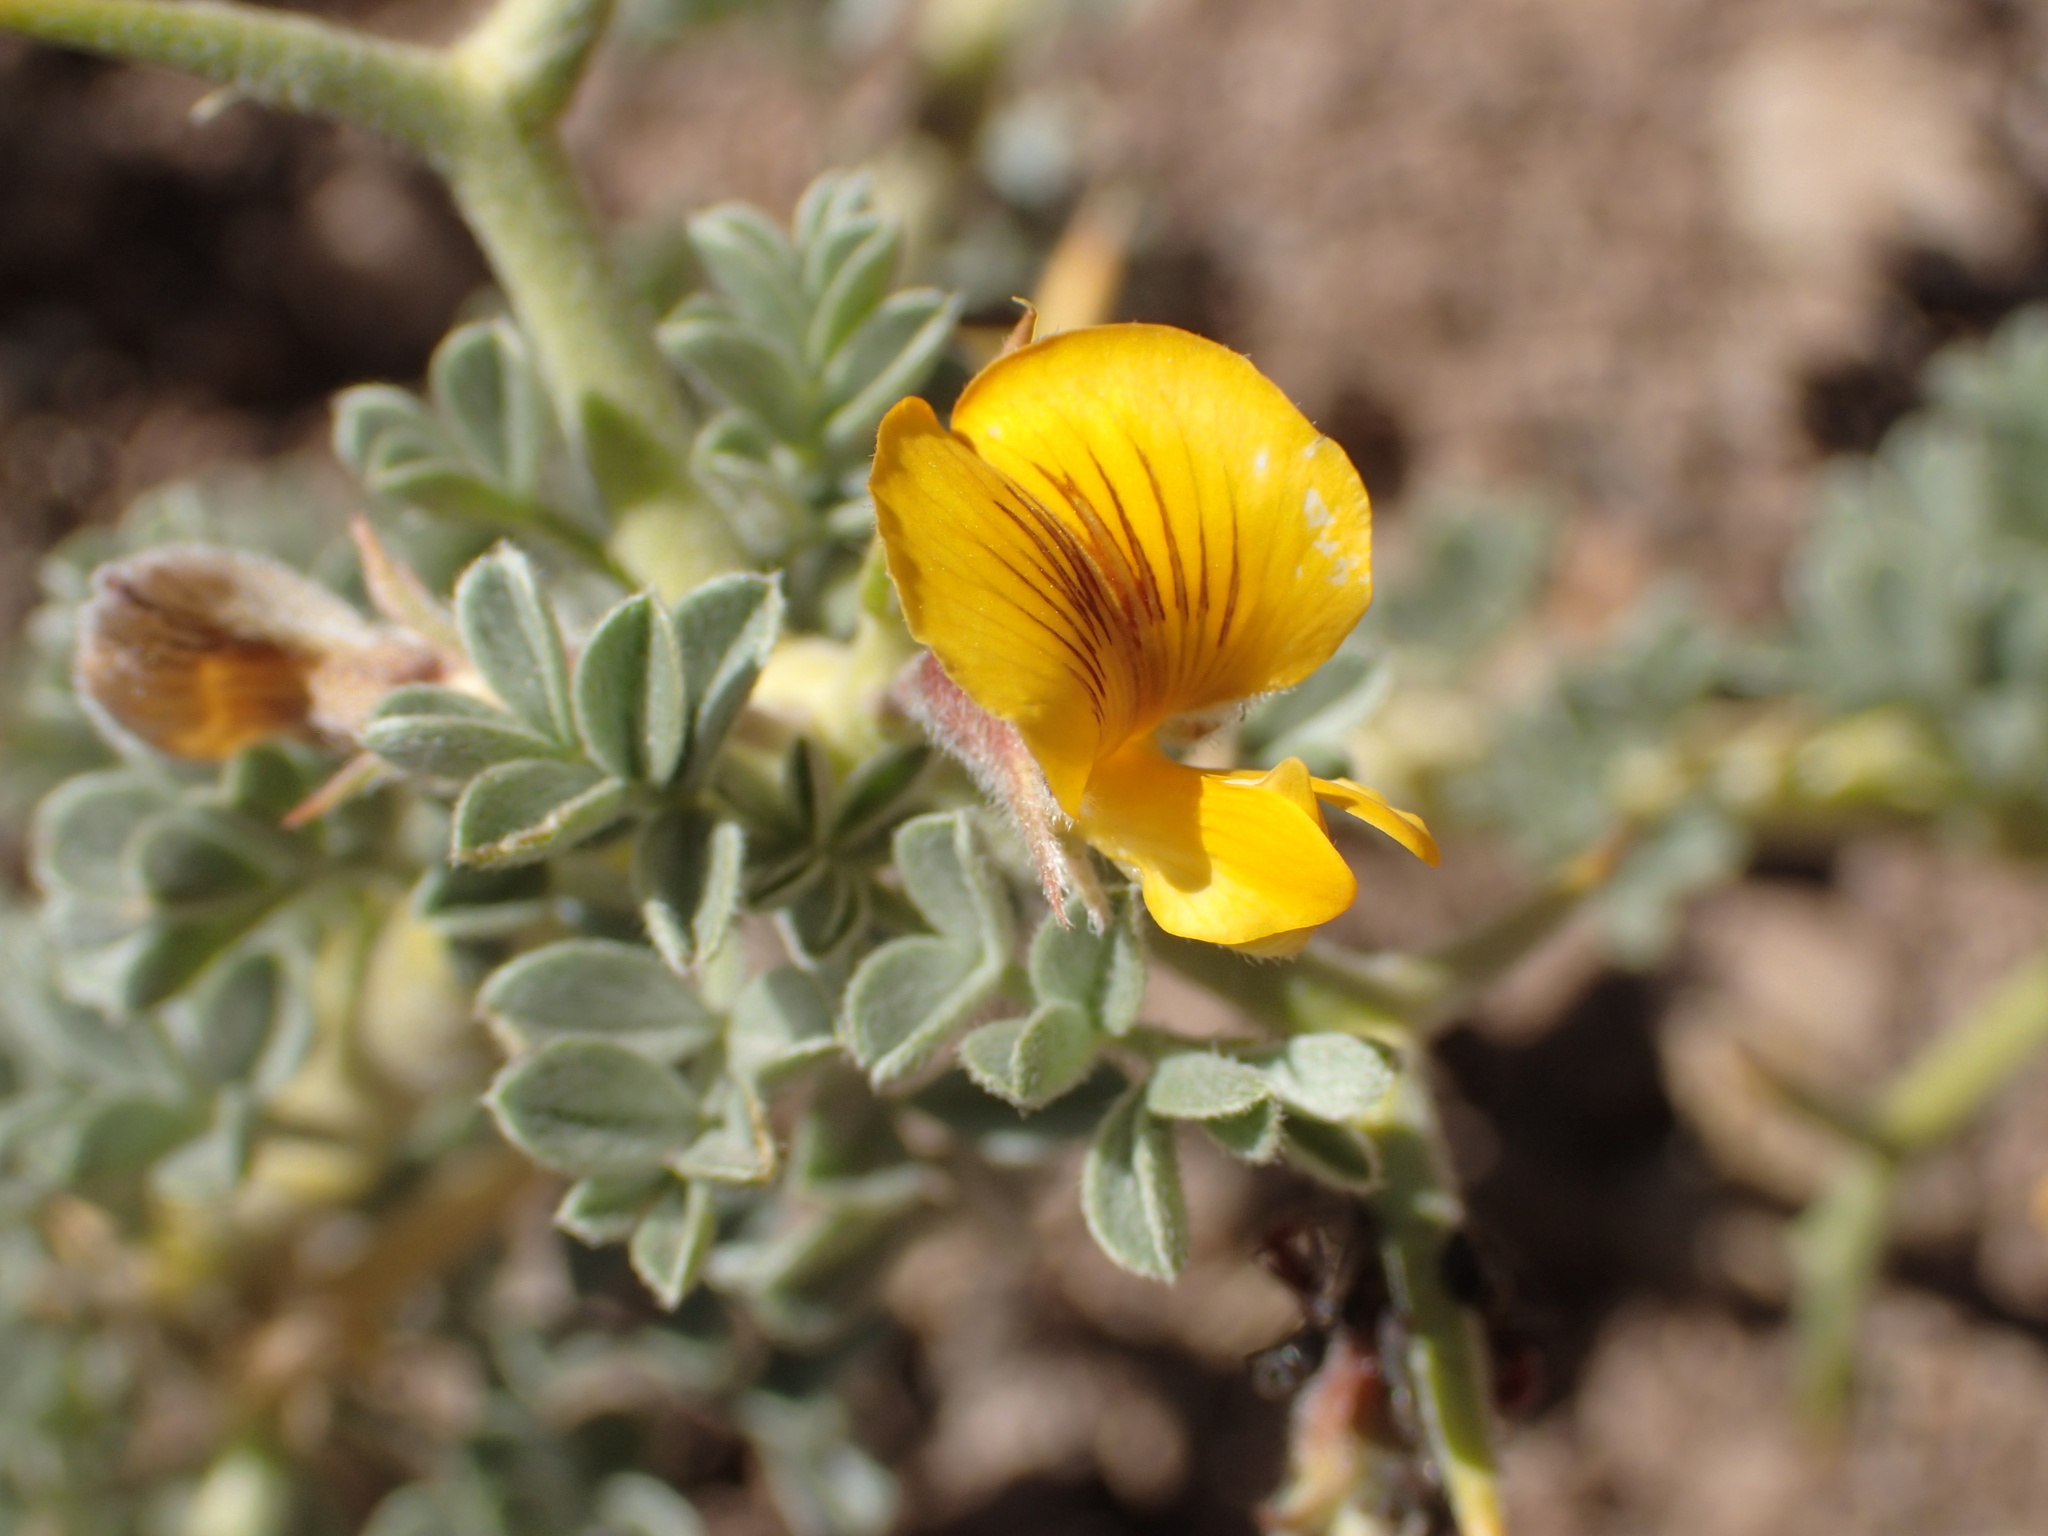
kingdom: Plantae
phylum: Tracheophyta
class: Magnoliopsida
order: Fabales
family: Fabaceae
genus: Adesmia
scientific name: Adesmia aegiceras
